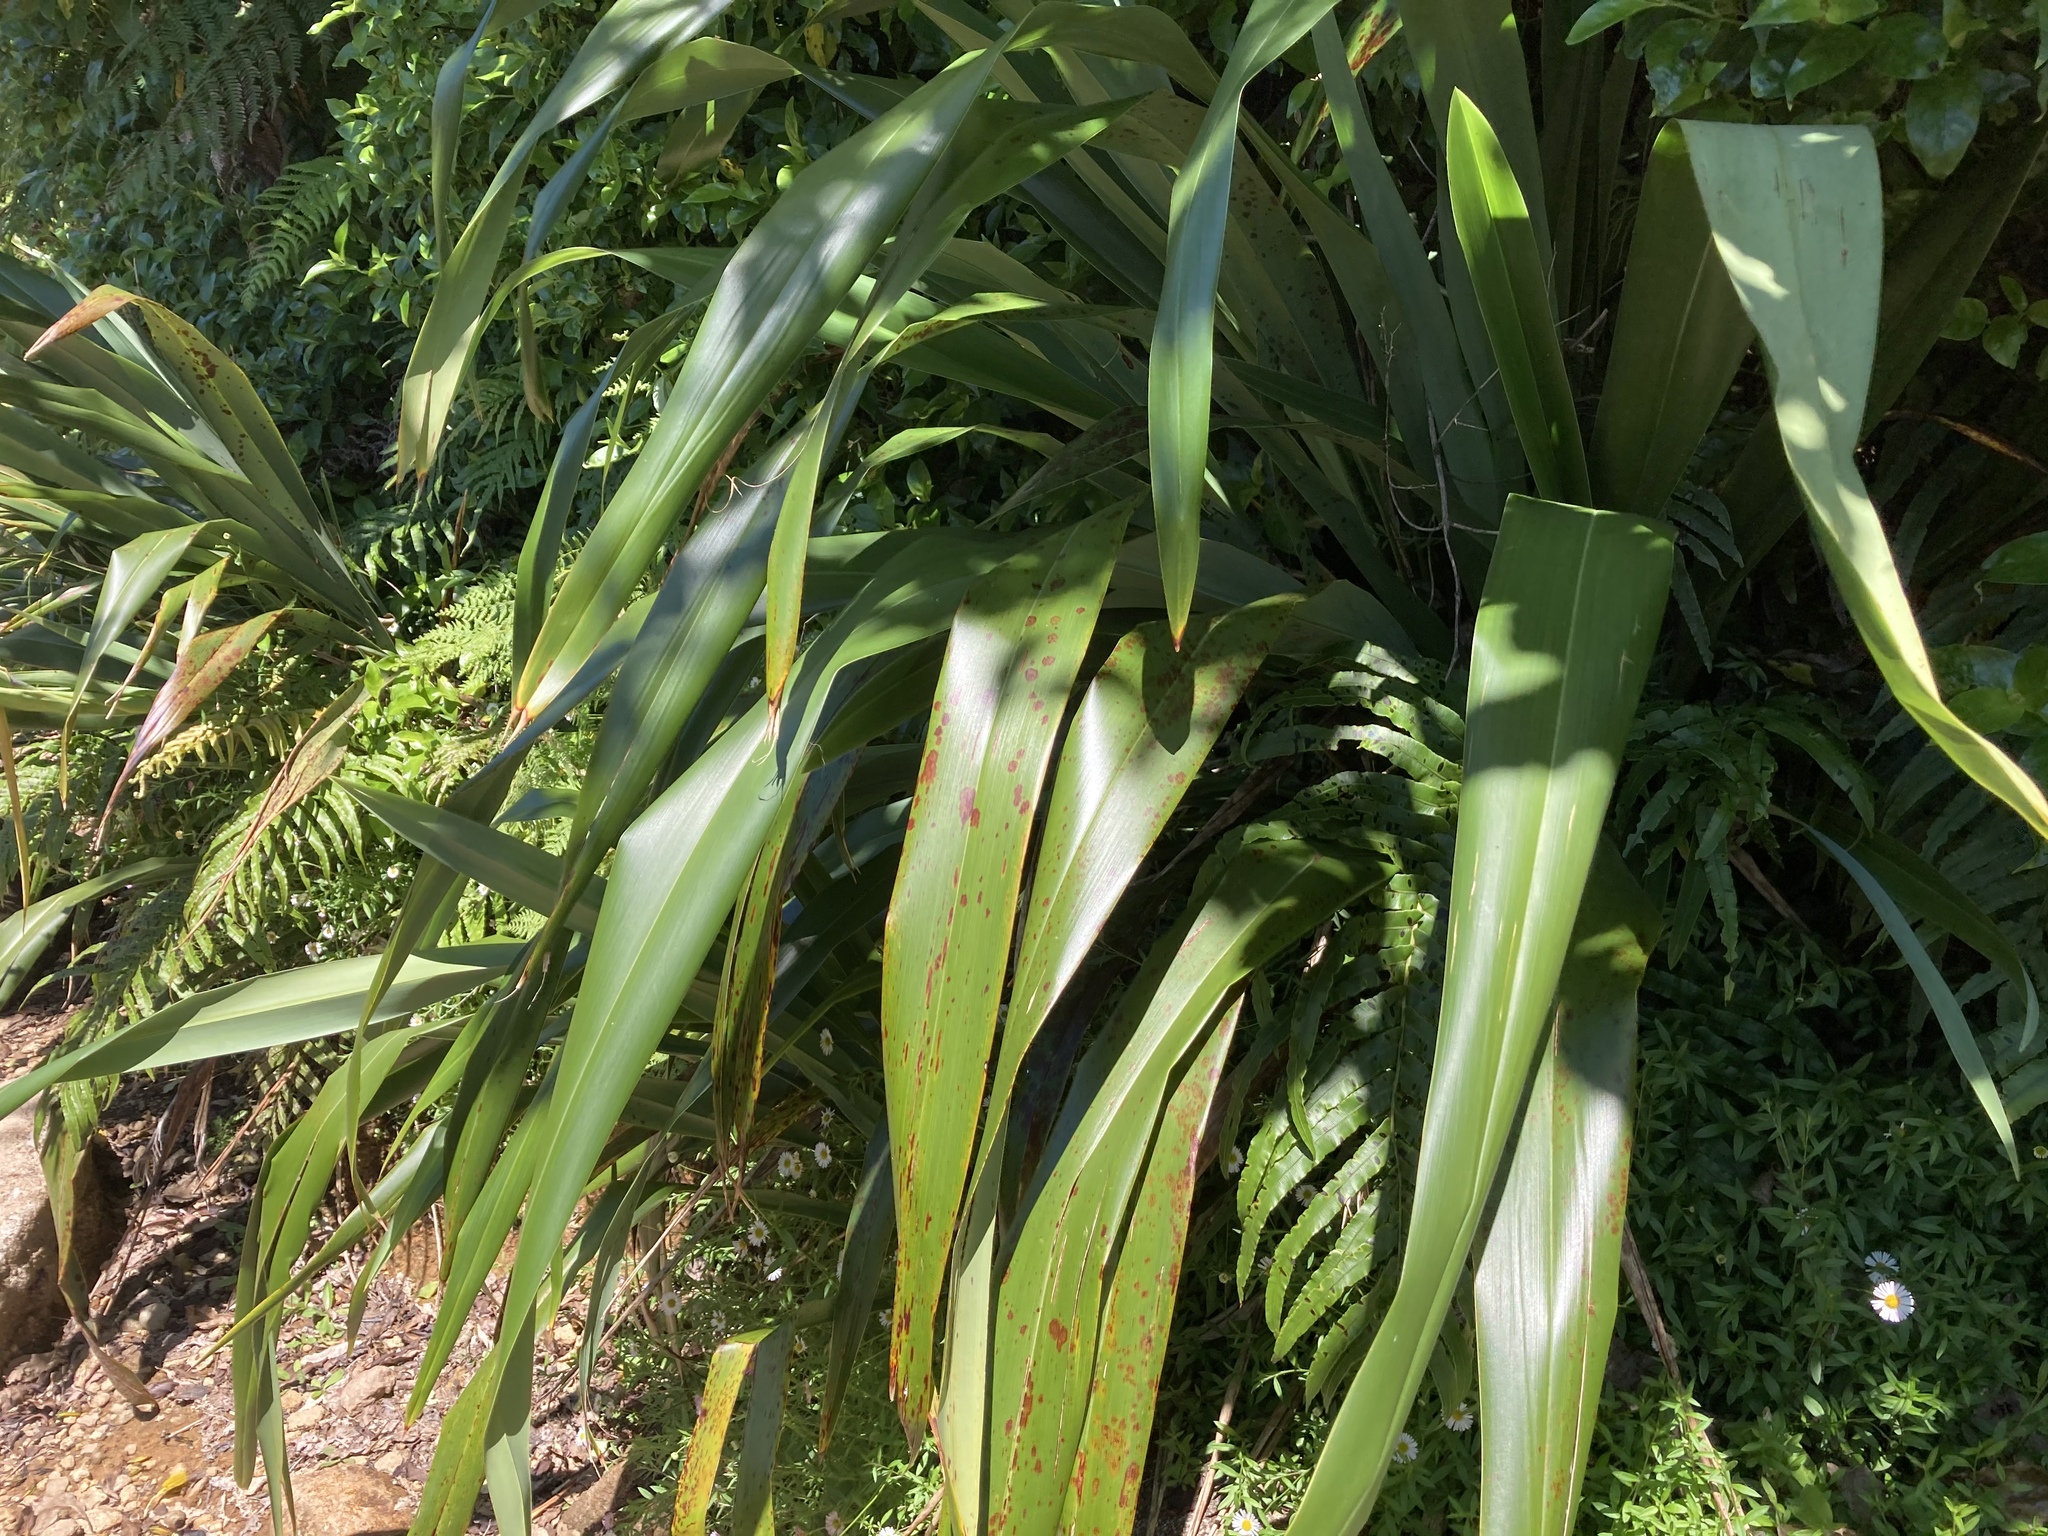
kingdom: Plantae
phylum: Tracheophyta
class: Liliopsida
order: Asparagales
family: Asphodelaceae
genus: Phormium
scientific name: Phormium colensoi
